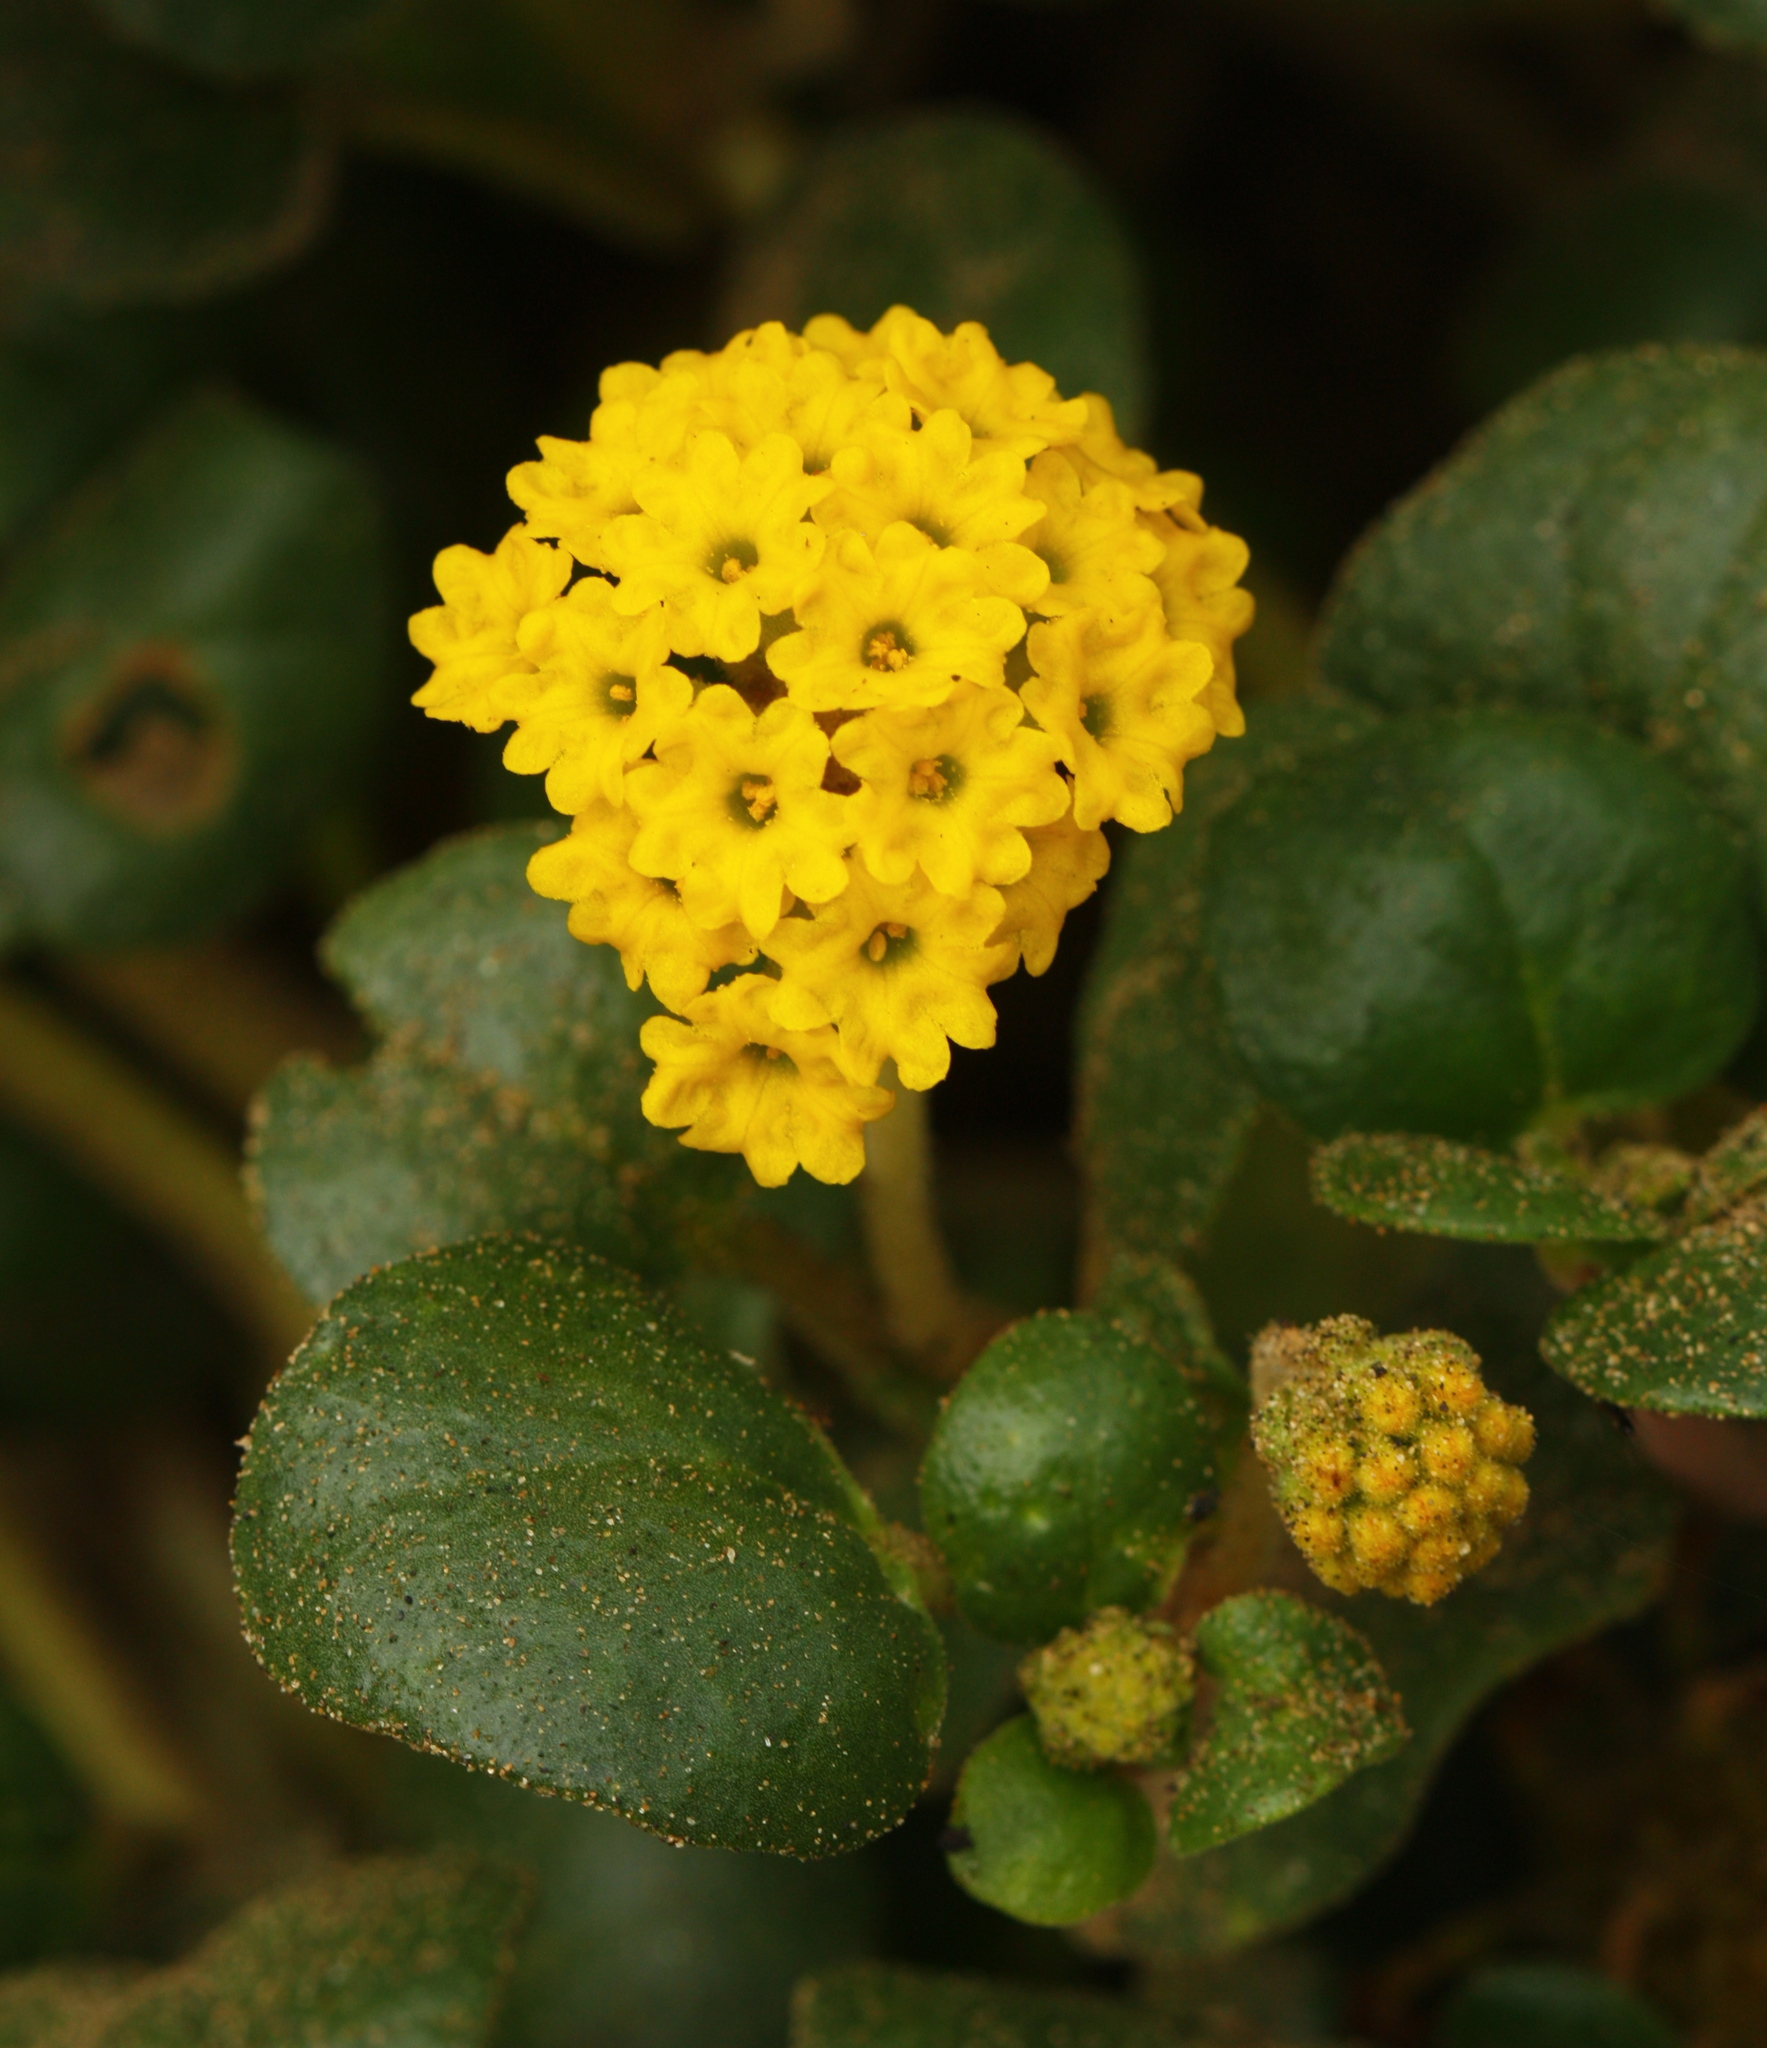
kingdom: Plantae
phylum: Tracheophyta
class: Magnoliopsida
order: Caryophyllales
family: Nyctaginaceae
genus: Abronia
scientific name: Abronia latifolia
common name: Yellow sand-verbena
